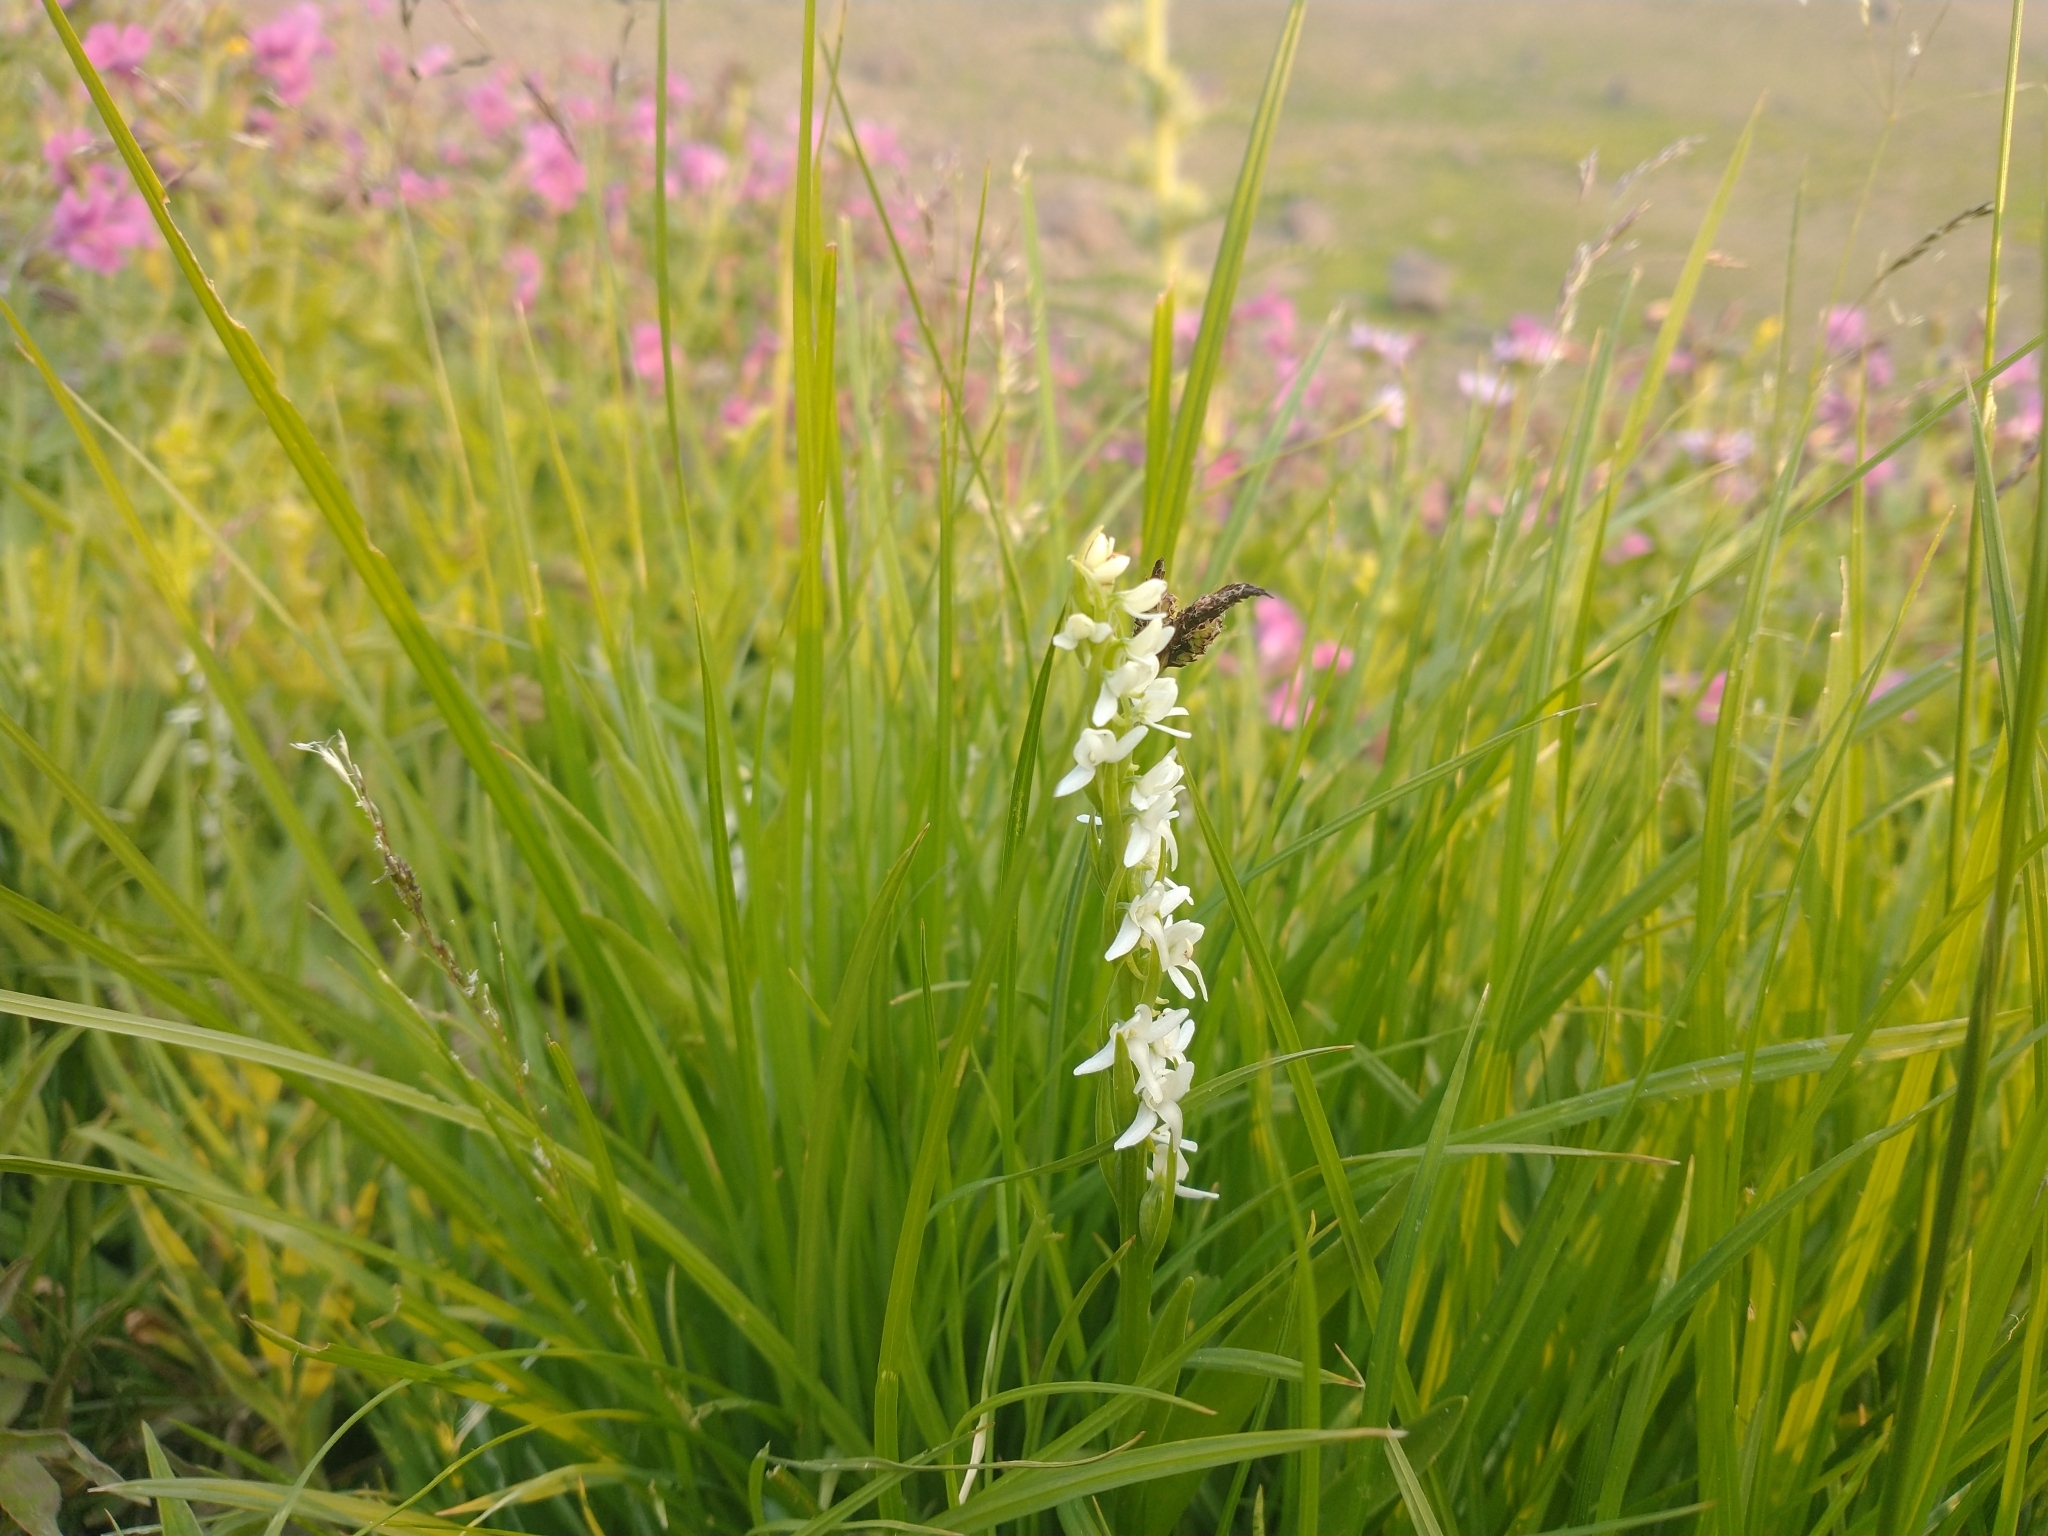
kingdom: Plantae
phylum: Tracheophyta
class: Liliopsida
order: Asparagales
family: Orchidaceae
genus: Platanthera
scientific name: Platanthera dilatata
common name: Bog candles
